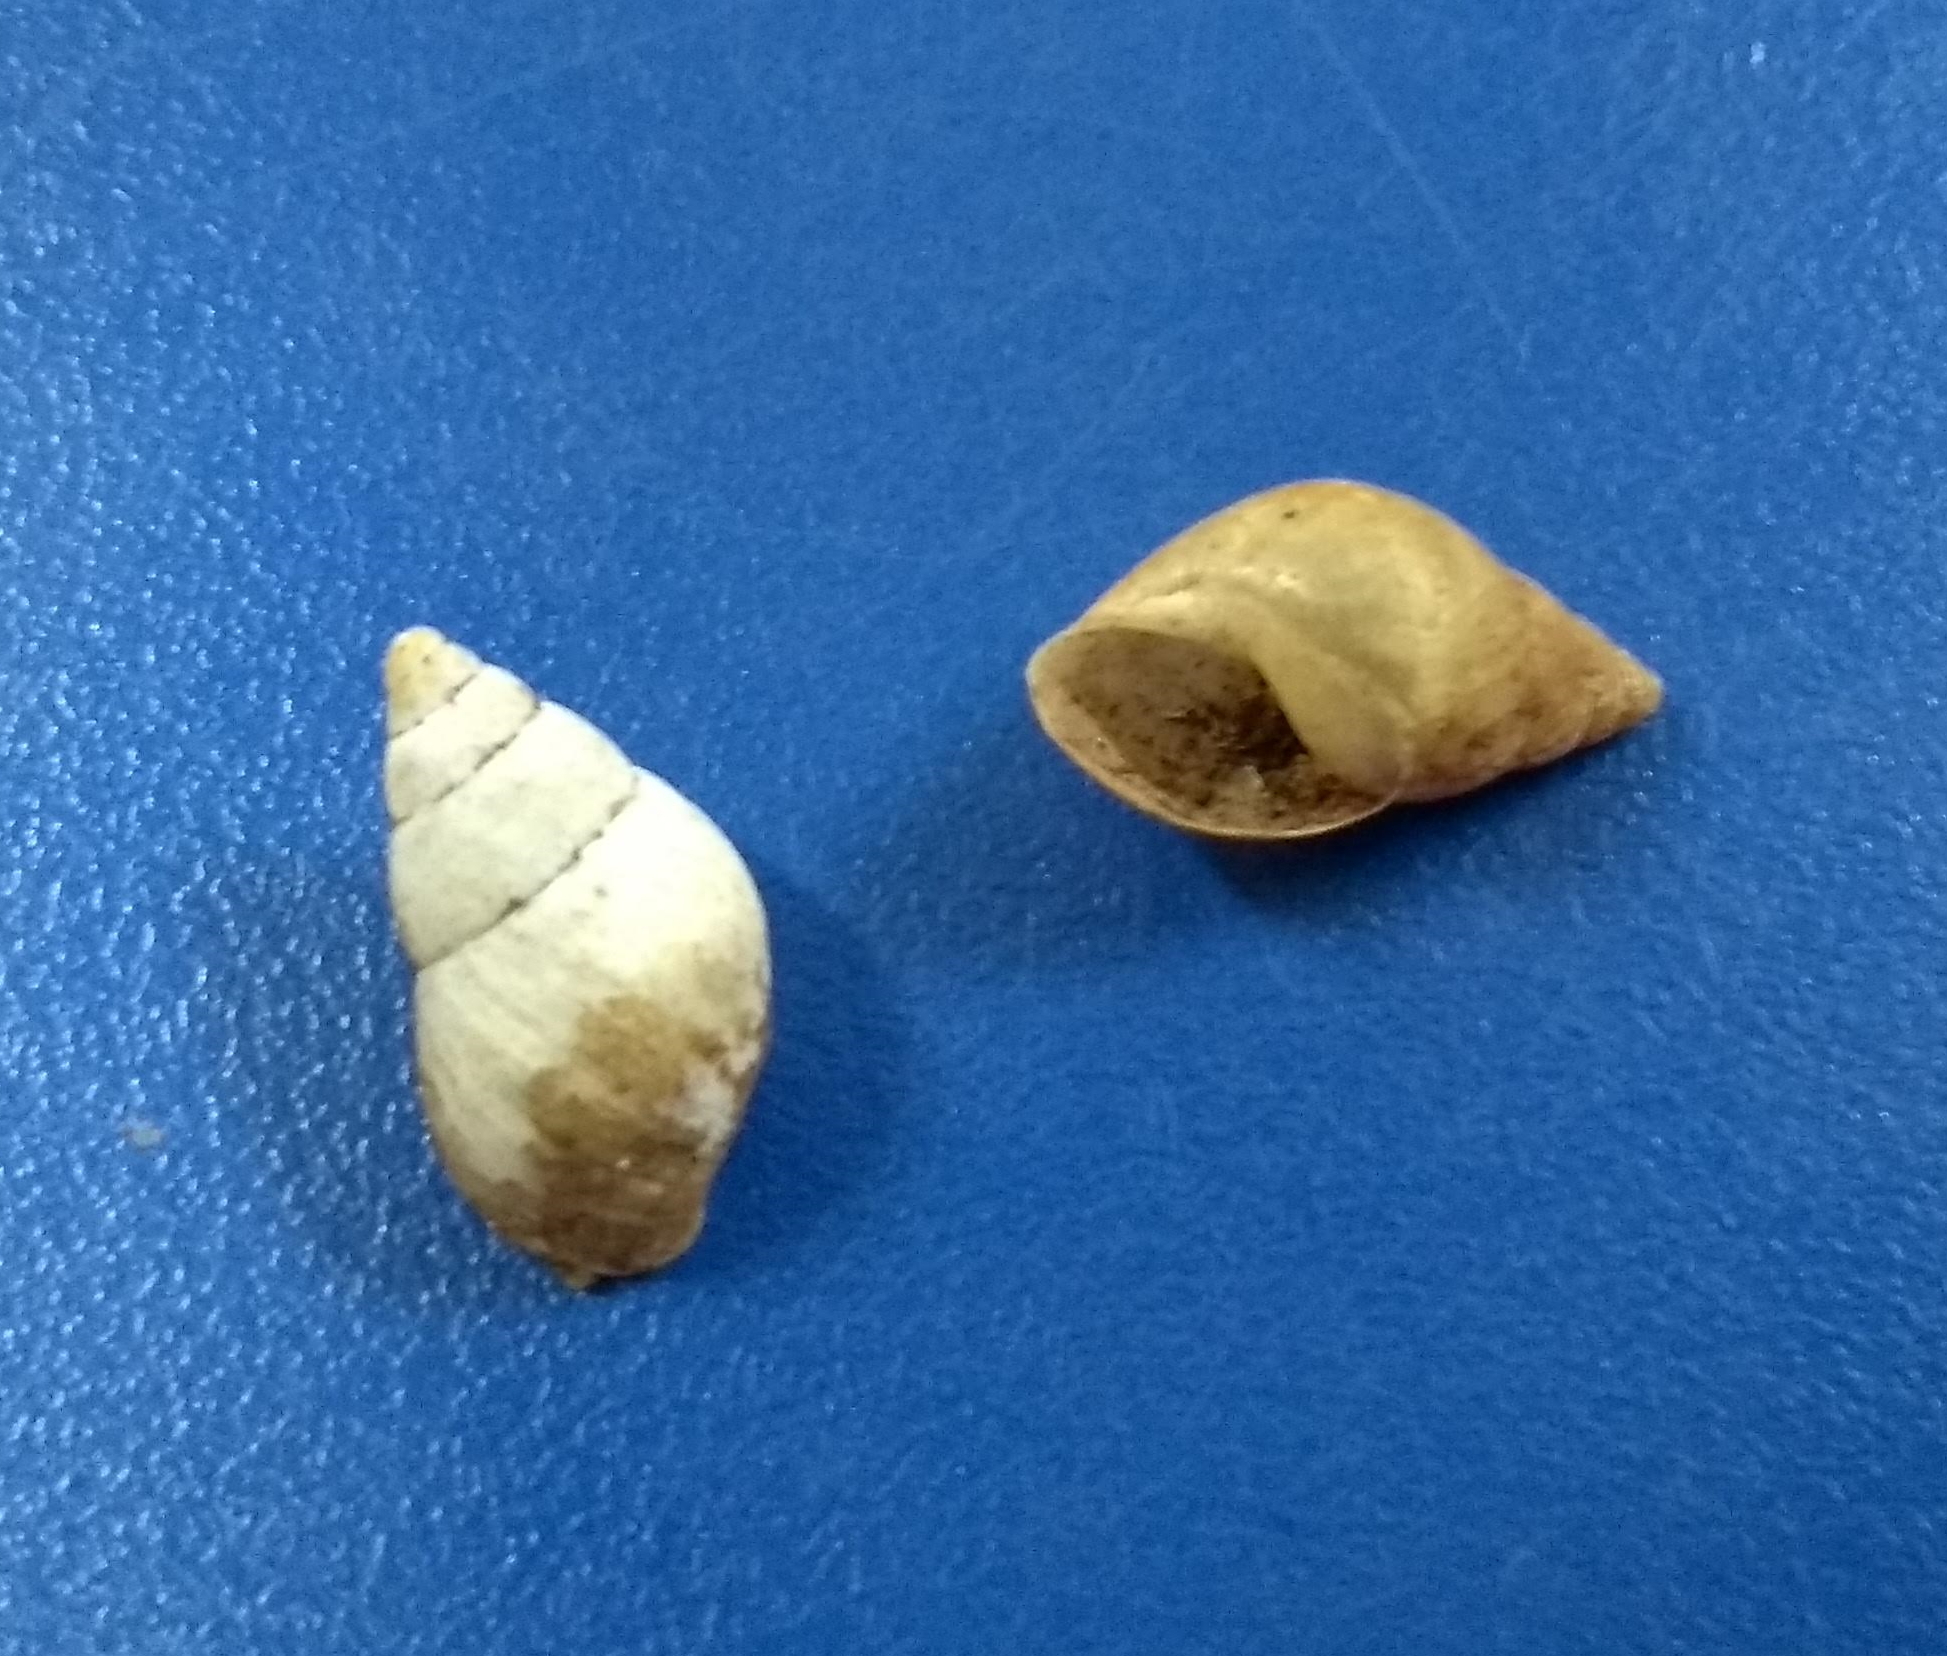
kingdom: Animalia
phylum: Mollusca
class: Gastropoda
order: Stylommatophora
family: Bulimulidae
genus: Bulimulus
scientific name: Bulimulus tenuissimus
